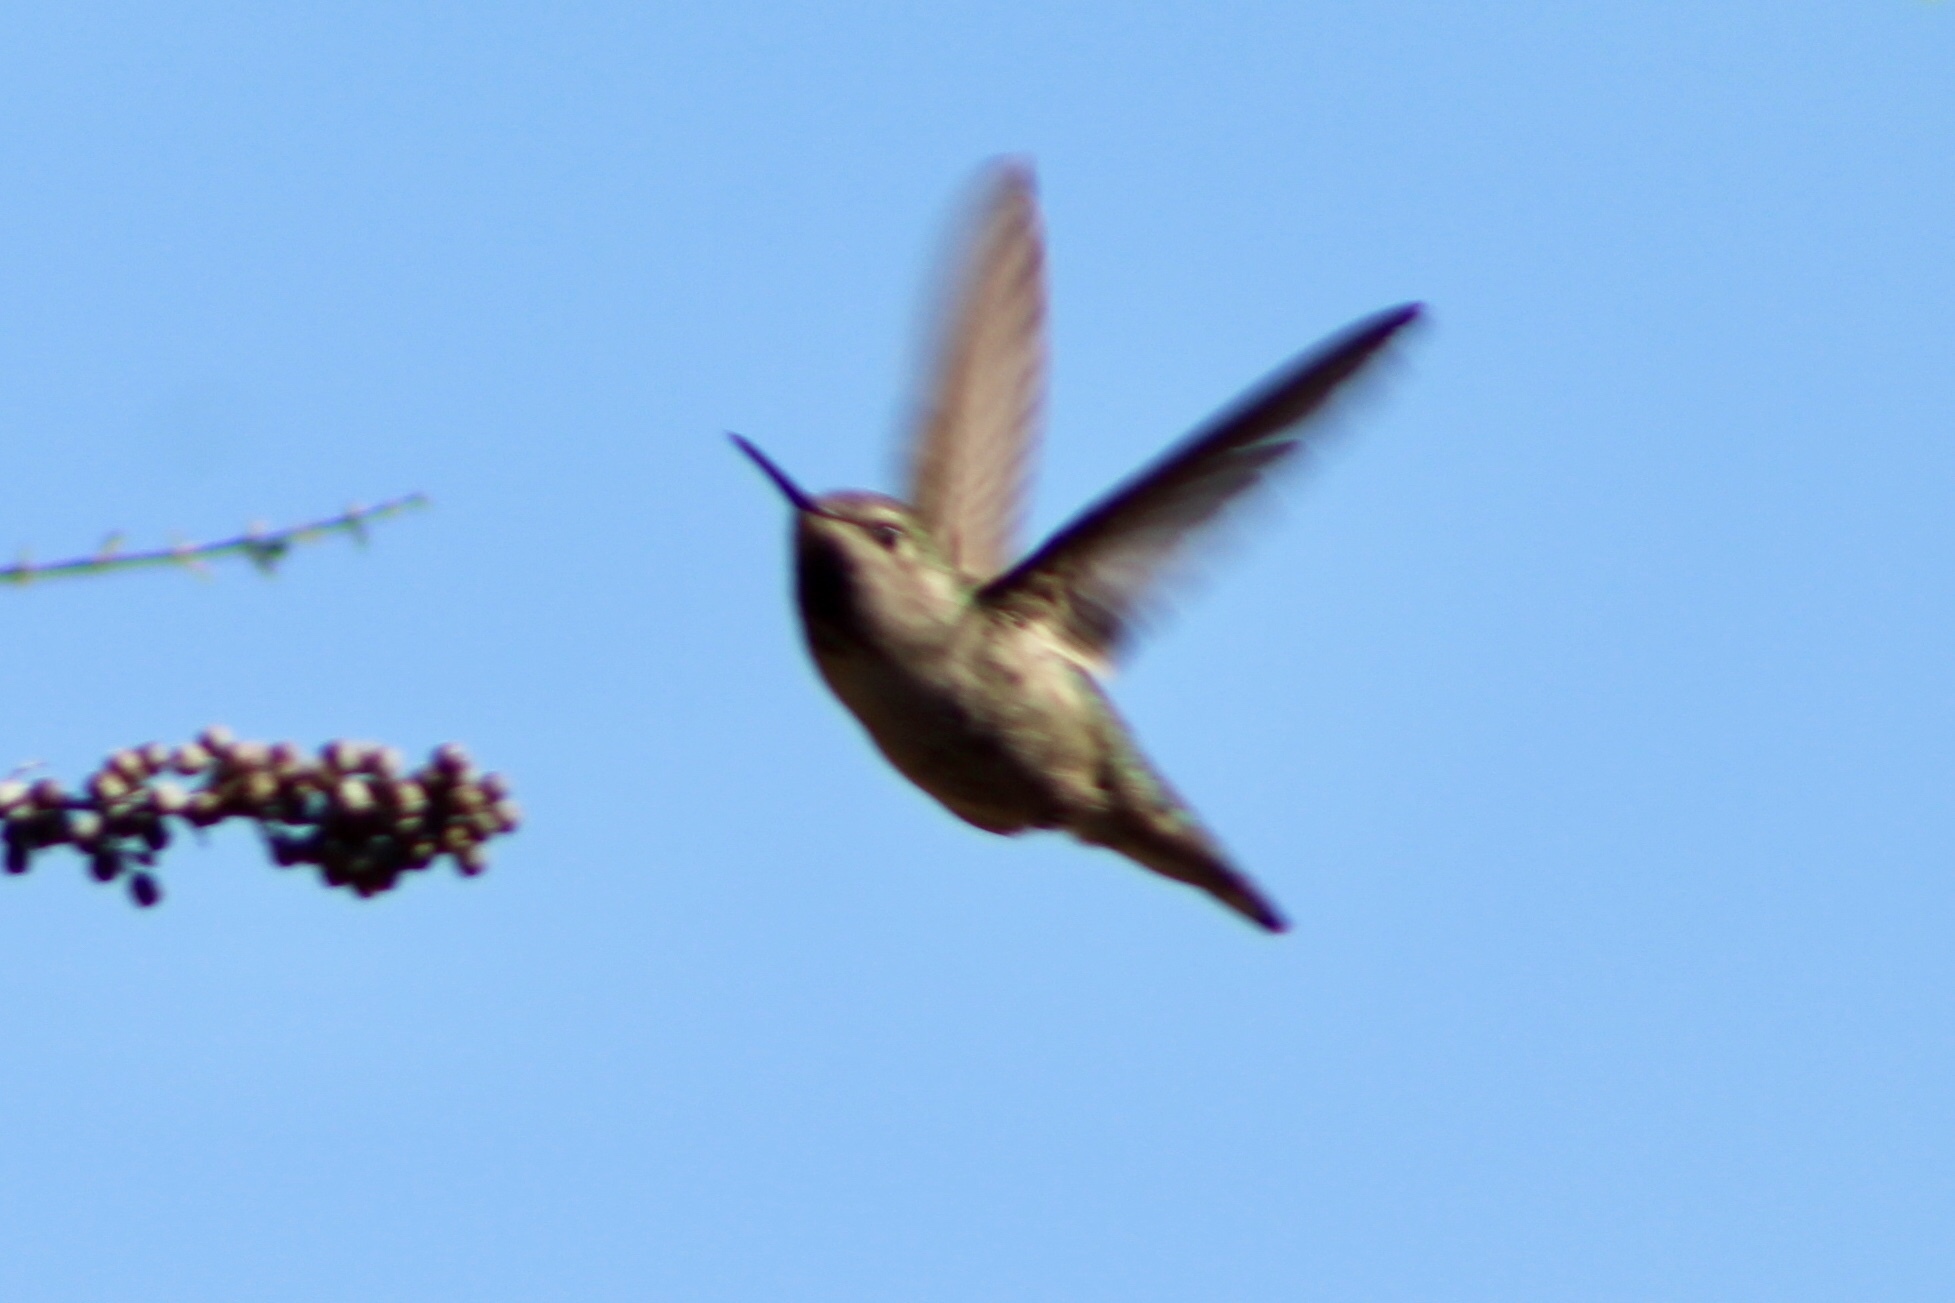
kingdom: Animalia
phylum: Chordata
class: Aves
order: Apodiformes
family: Trochilidae
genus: Calypte
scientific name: Calypte anna
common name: Anna's hummingbird
